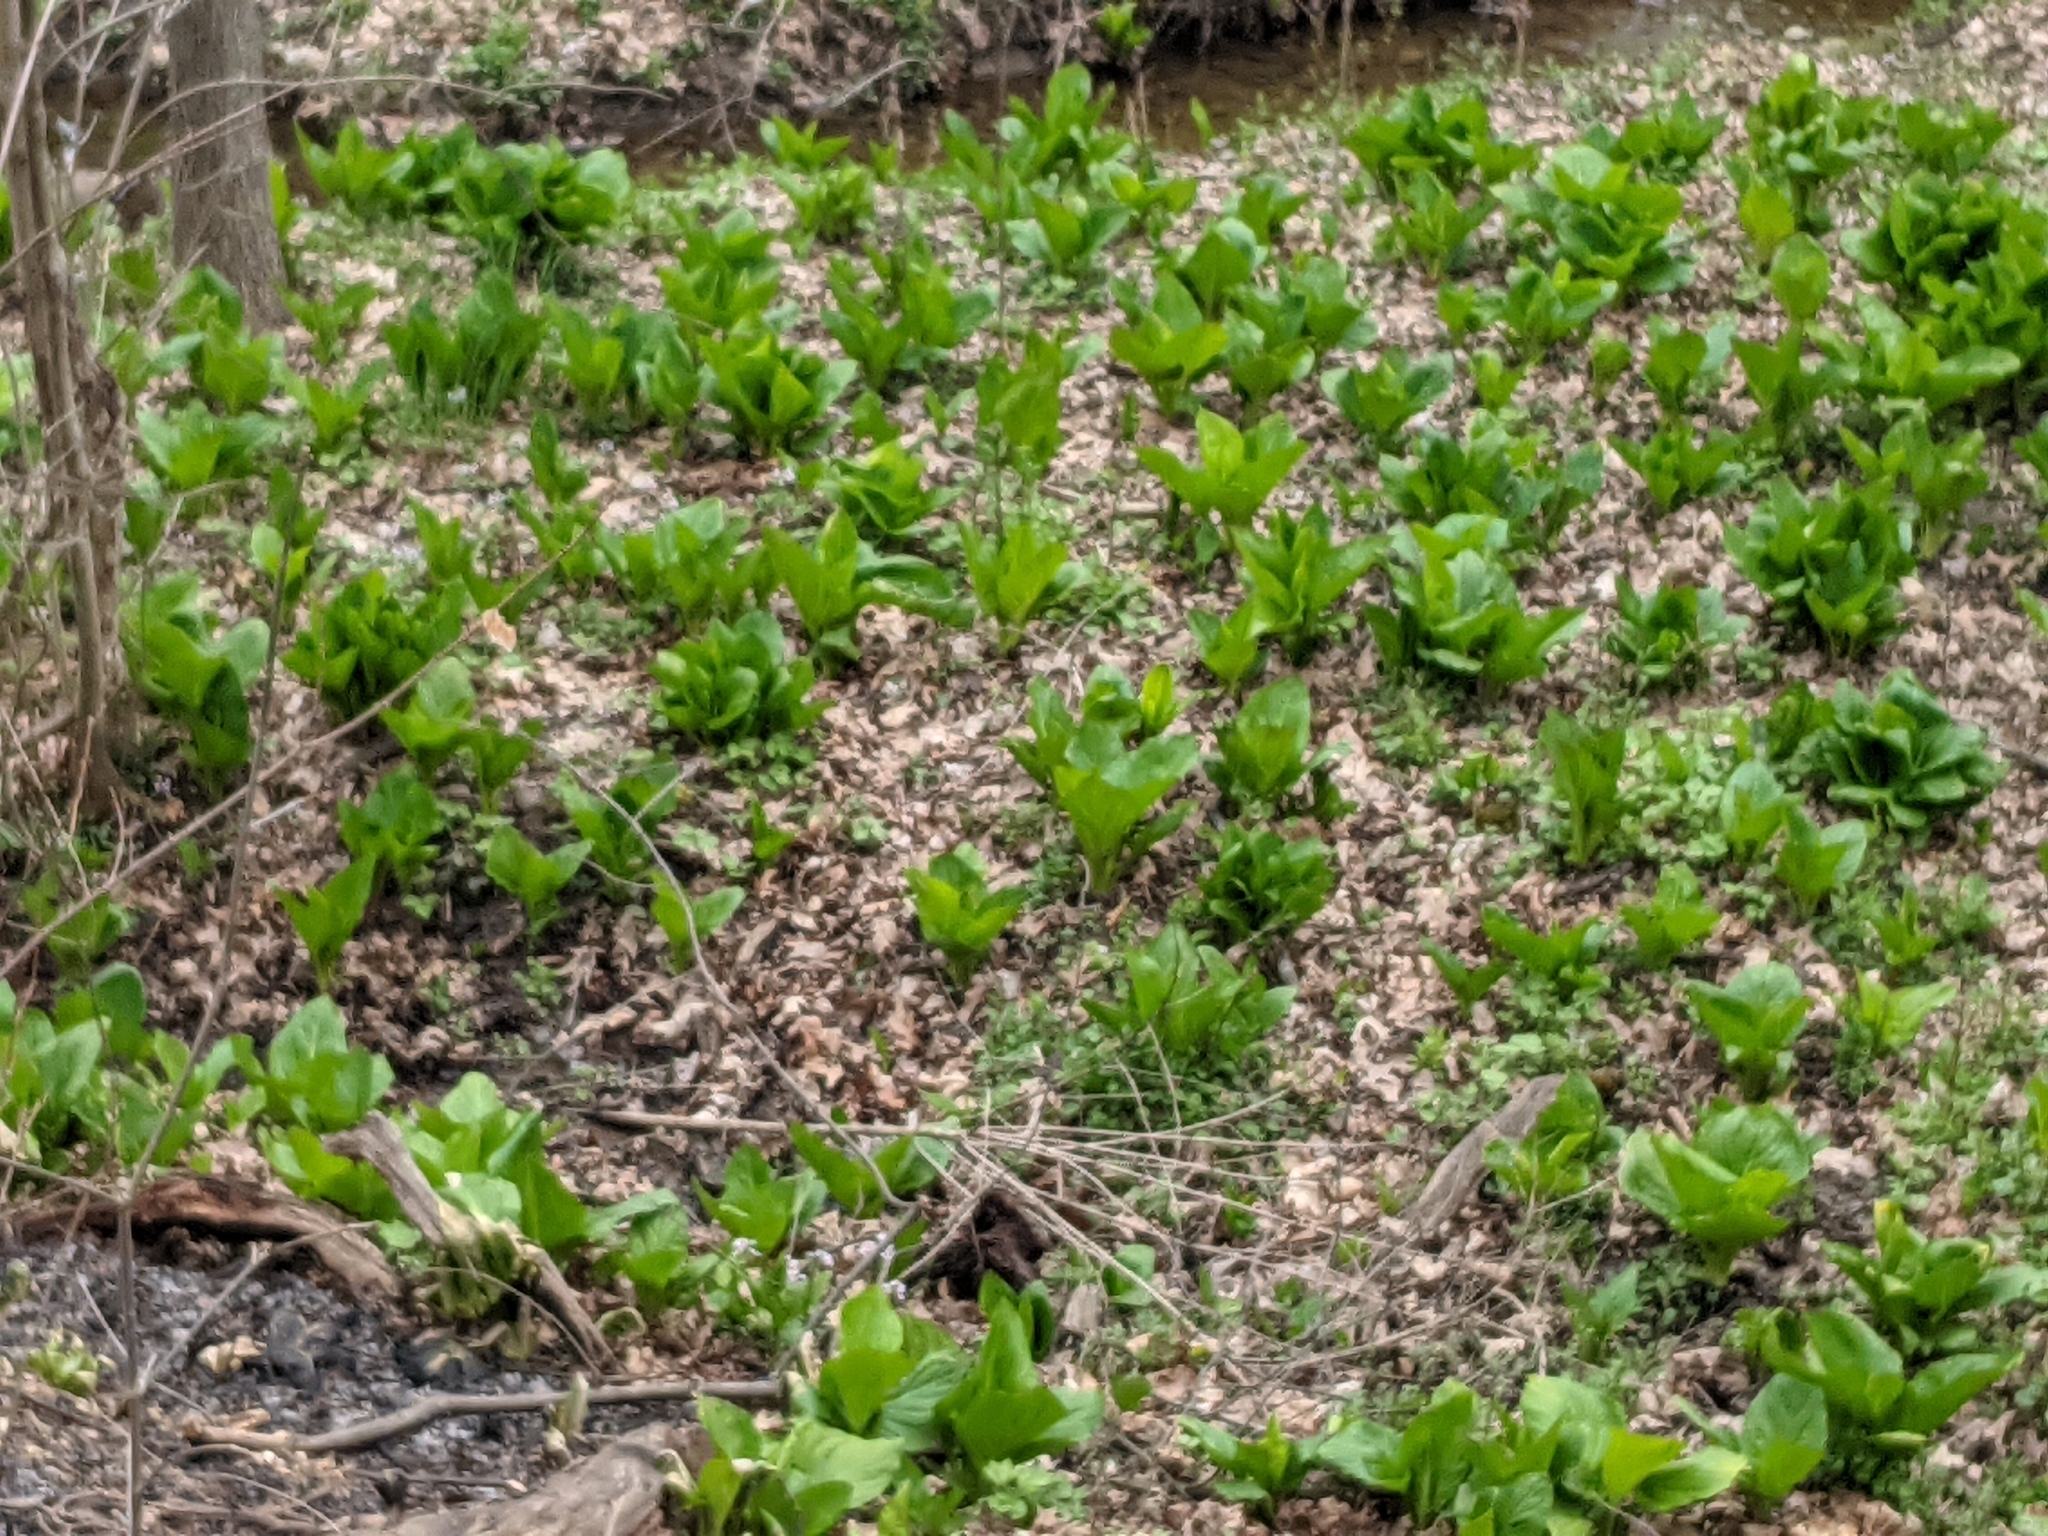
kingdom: Plantae
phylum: Tracheophyta
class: Liliopsida
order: Alismatales
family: Araceae
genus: Symplocarpus
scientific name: Symplocarpus foetidus
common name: Eastern skunk cabbage
